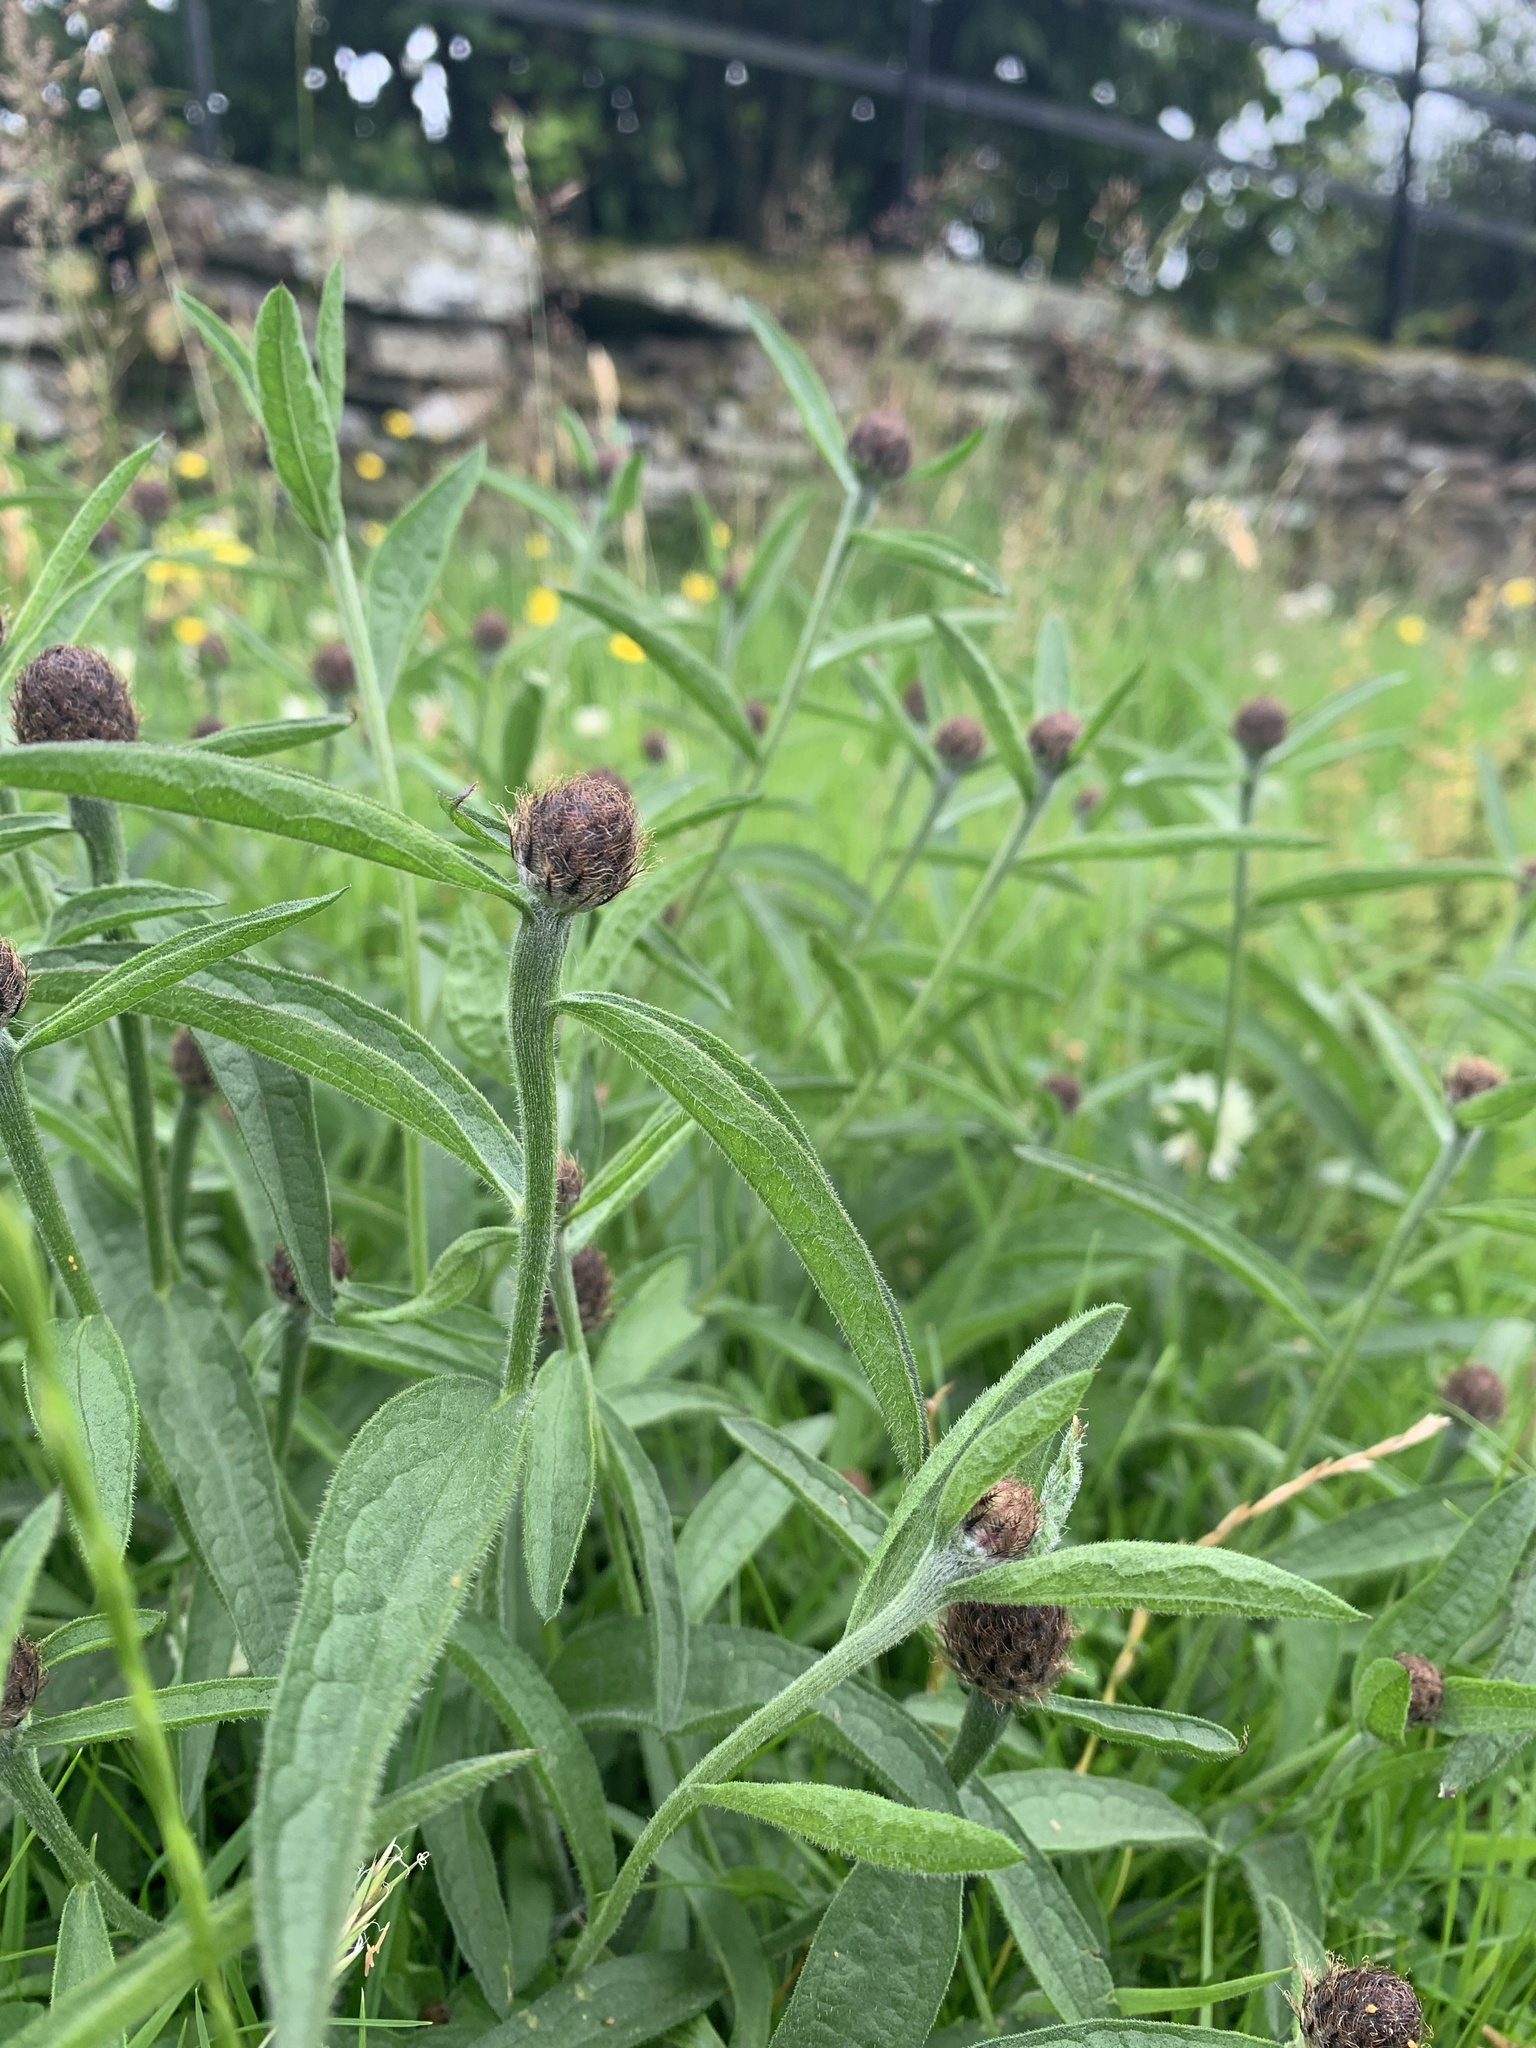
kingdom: Plantae
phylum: Tracheophyta
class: Magnoliopsida
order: Asterales
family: Asteraceae
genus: Centaurea
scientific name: Centaurea nigra
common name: Lesser knapweed
